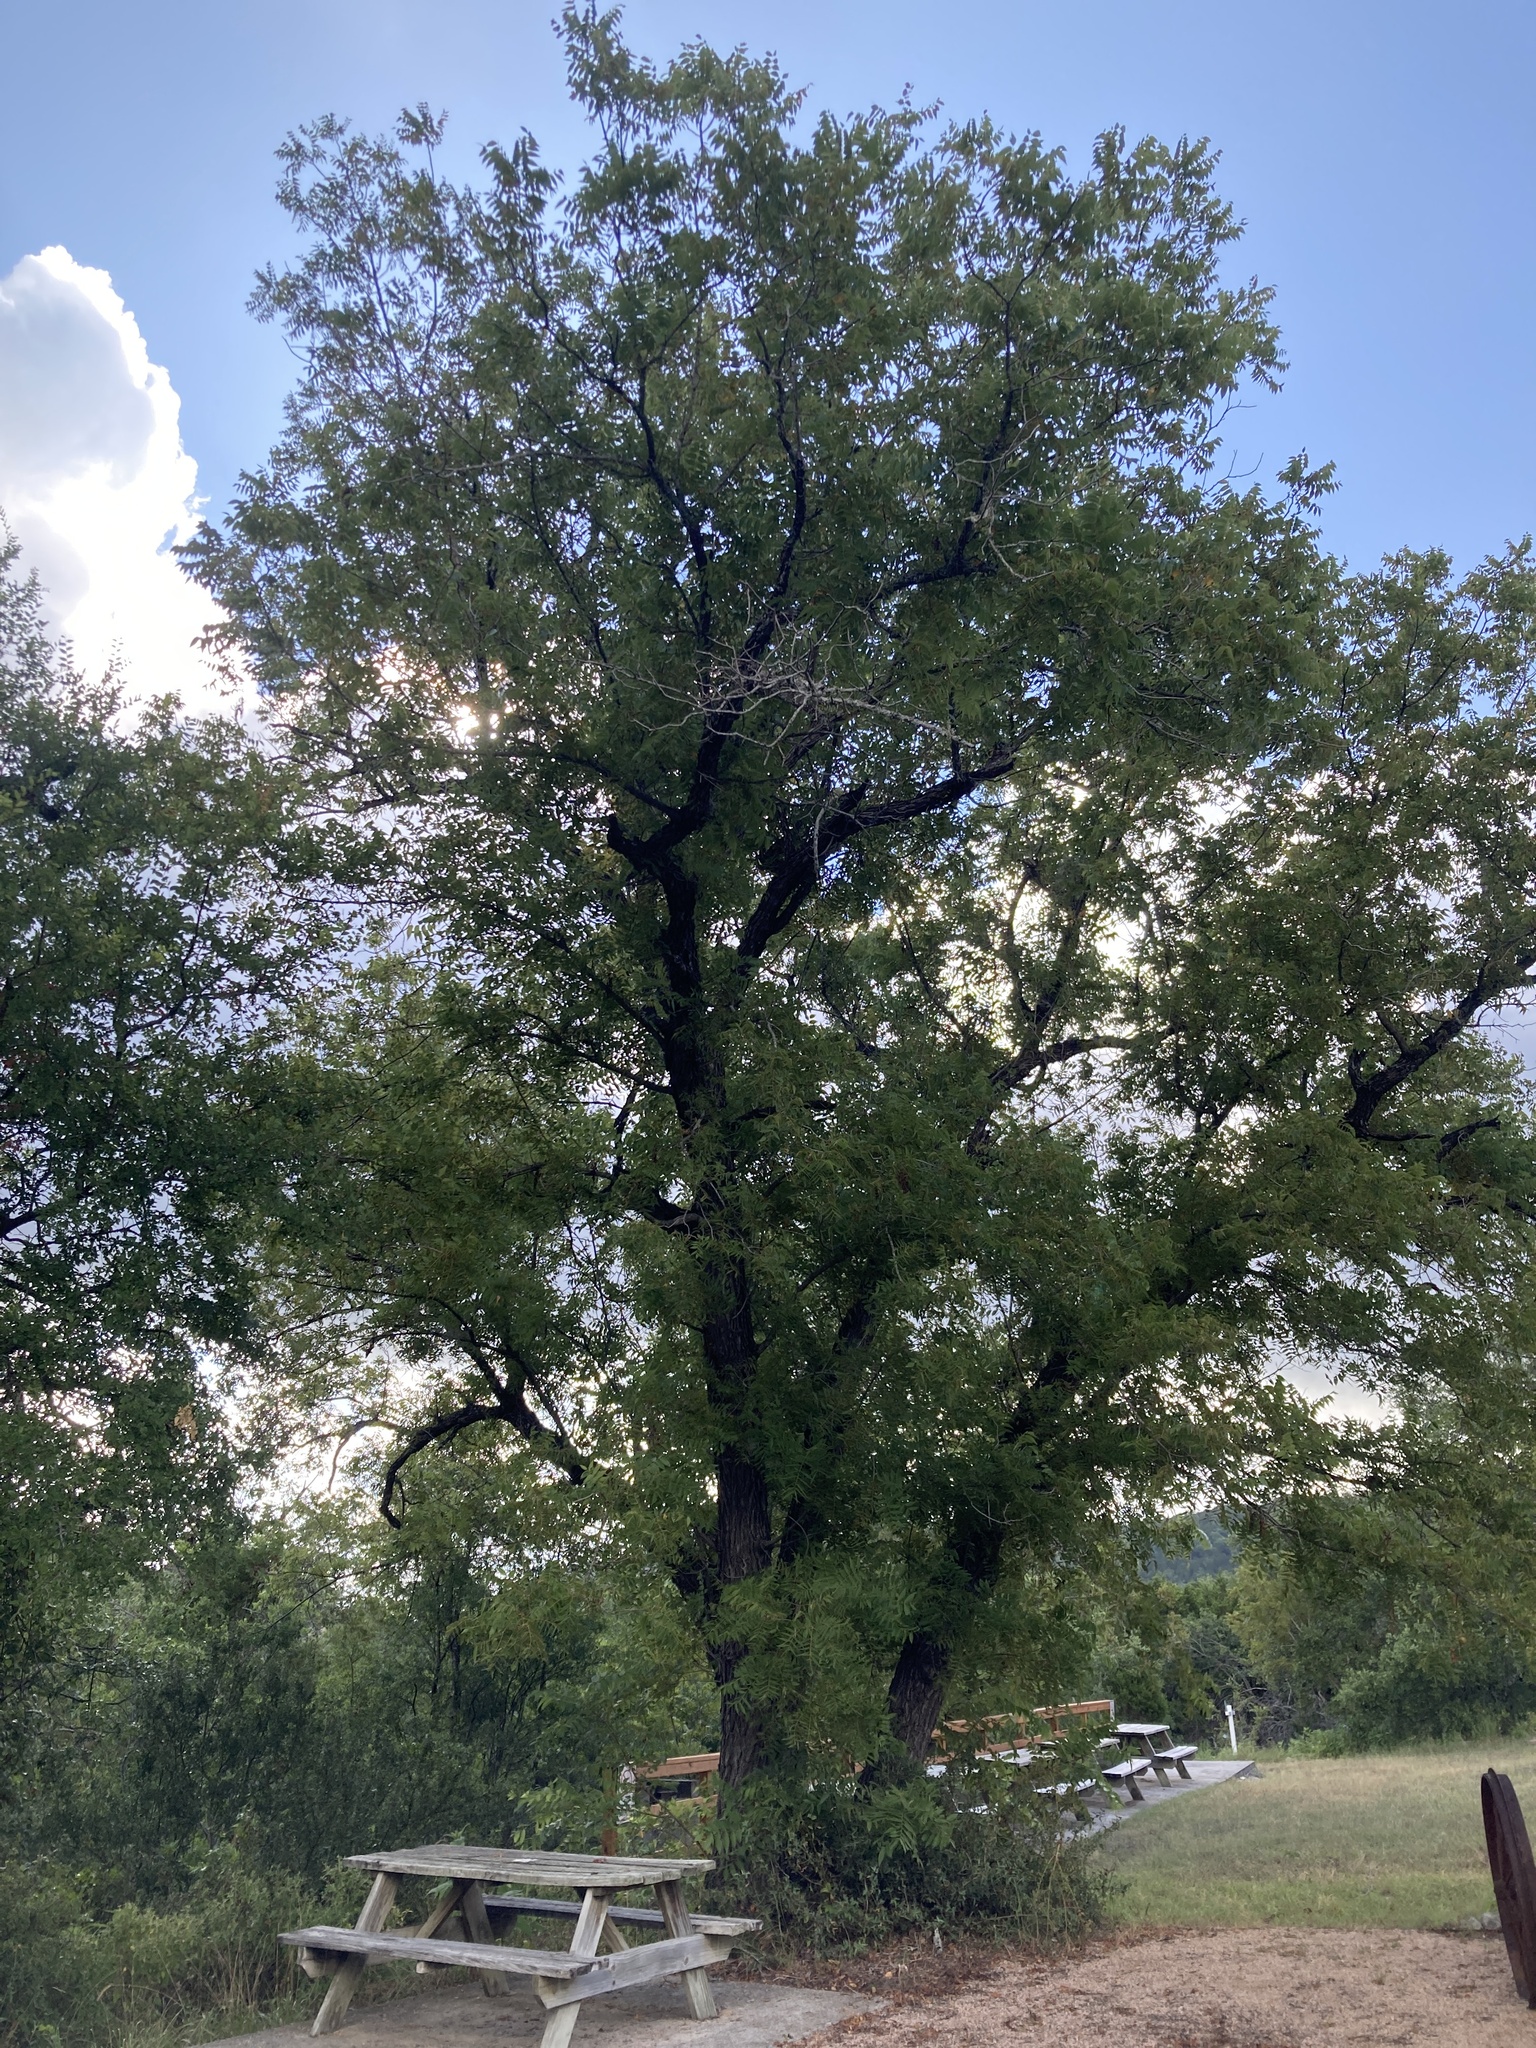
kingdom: Plantae
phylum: Tracheophyta
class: Magnoliopsida
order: Fagales
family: Juglandaceae
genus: Juglans
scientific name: Juglans major
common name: Arizona walnut
